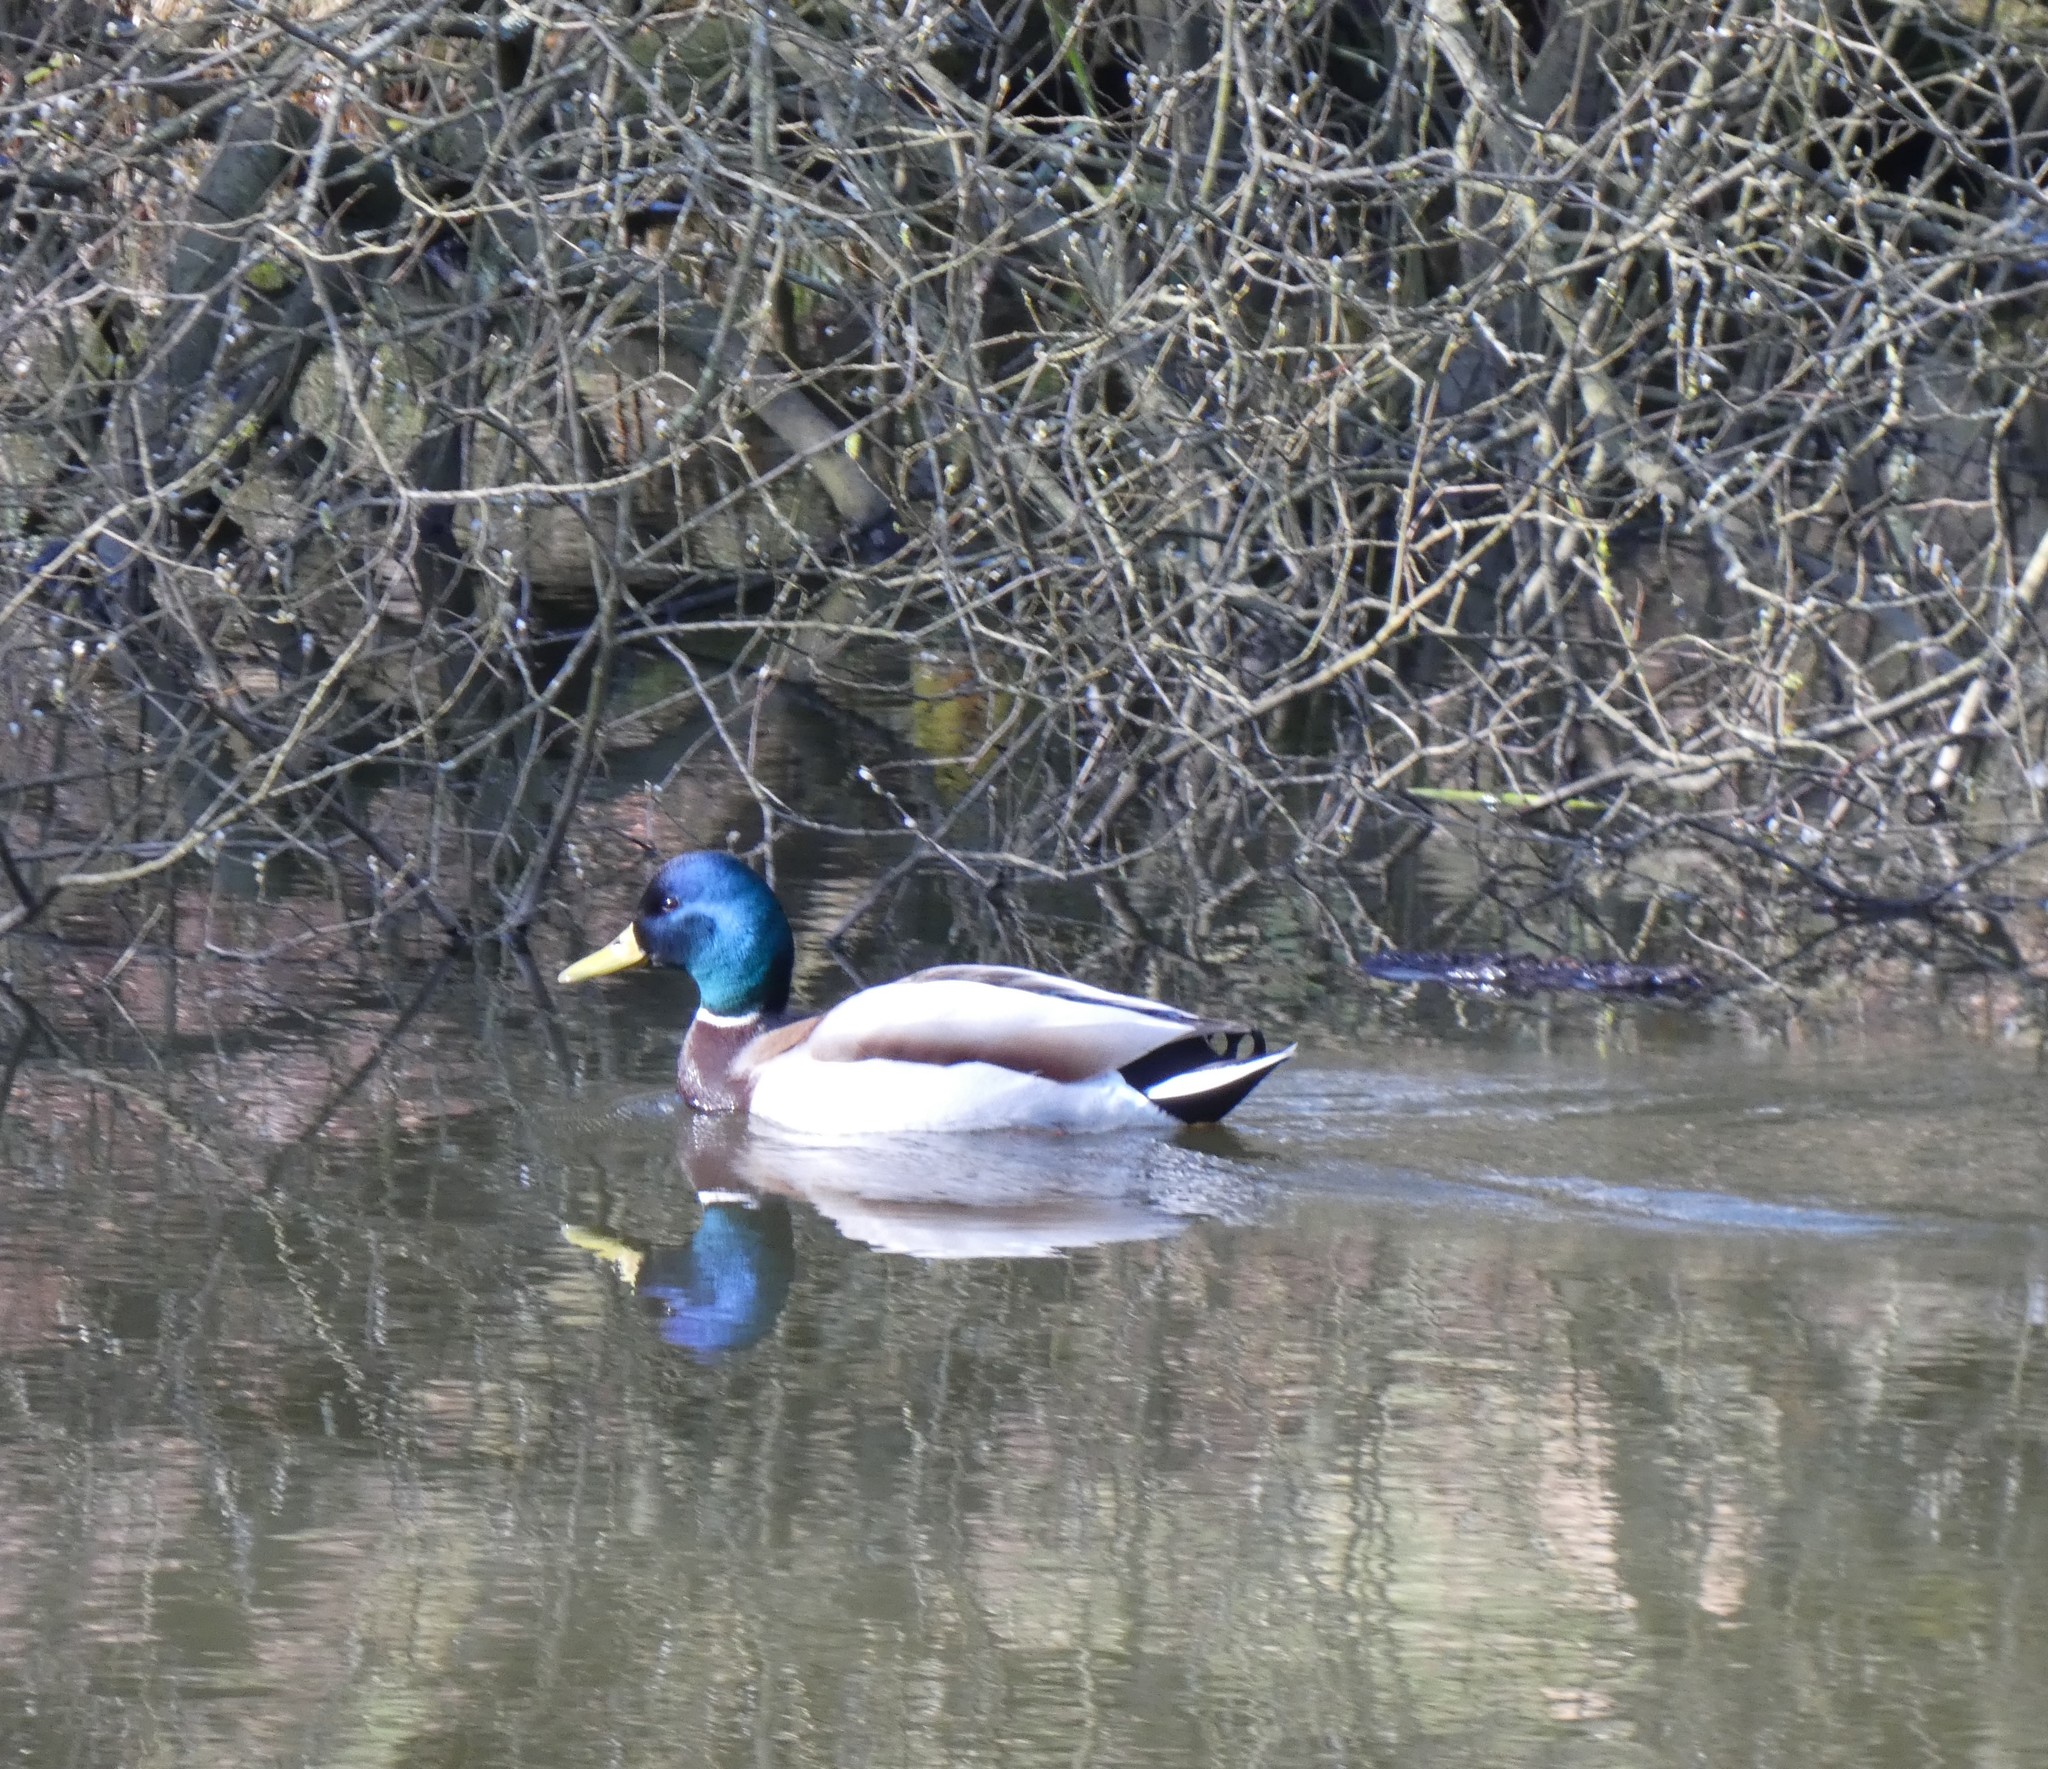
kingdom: Animalia
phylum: Chordata
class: Aves
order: Anseriformes
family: Anatidae
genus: Anas
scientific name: Anas platyrhynchos
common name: Mallard
